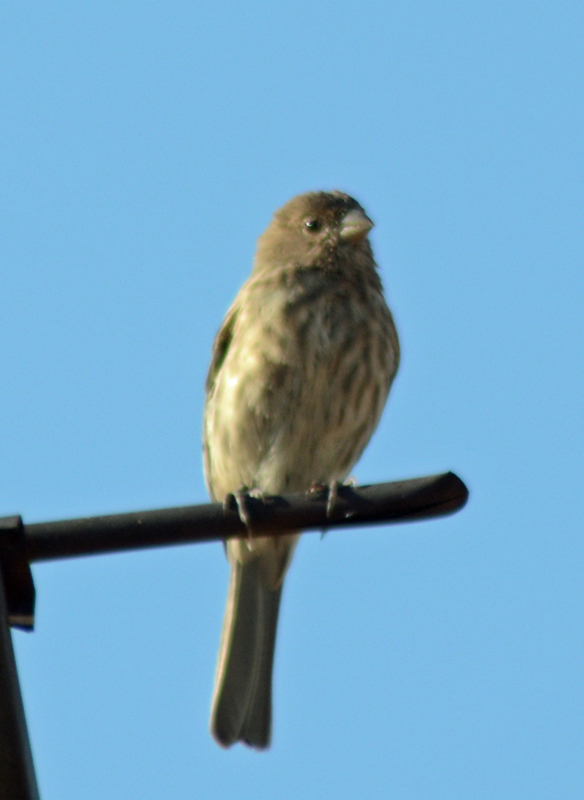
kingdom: Animalia
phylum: Chordata
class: Aves
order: Passeriformes
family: Fringillidae
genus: Haemorhous
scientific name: Haemorhous mexicanus
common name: House finch
